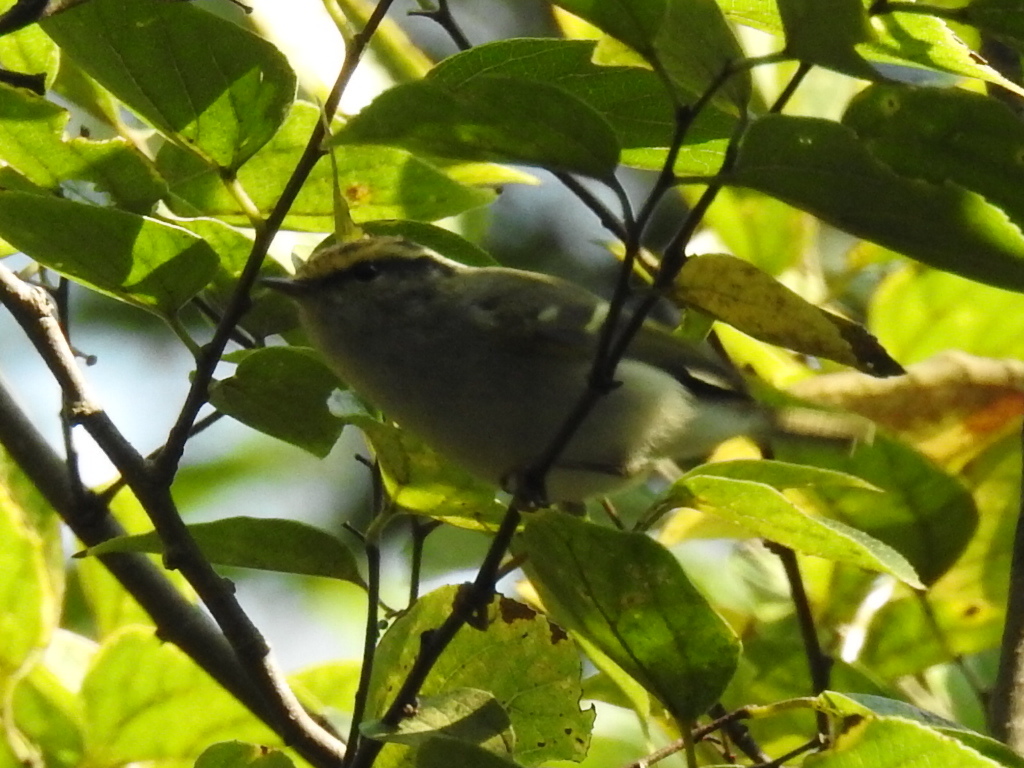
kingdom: Animalia
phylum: Chordata
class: Aves
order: Passeriformes
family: Phylloscopidae
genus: Phylloscopus
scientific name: Phylloscopus proregulus
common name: Pallas's leaf warbler
